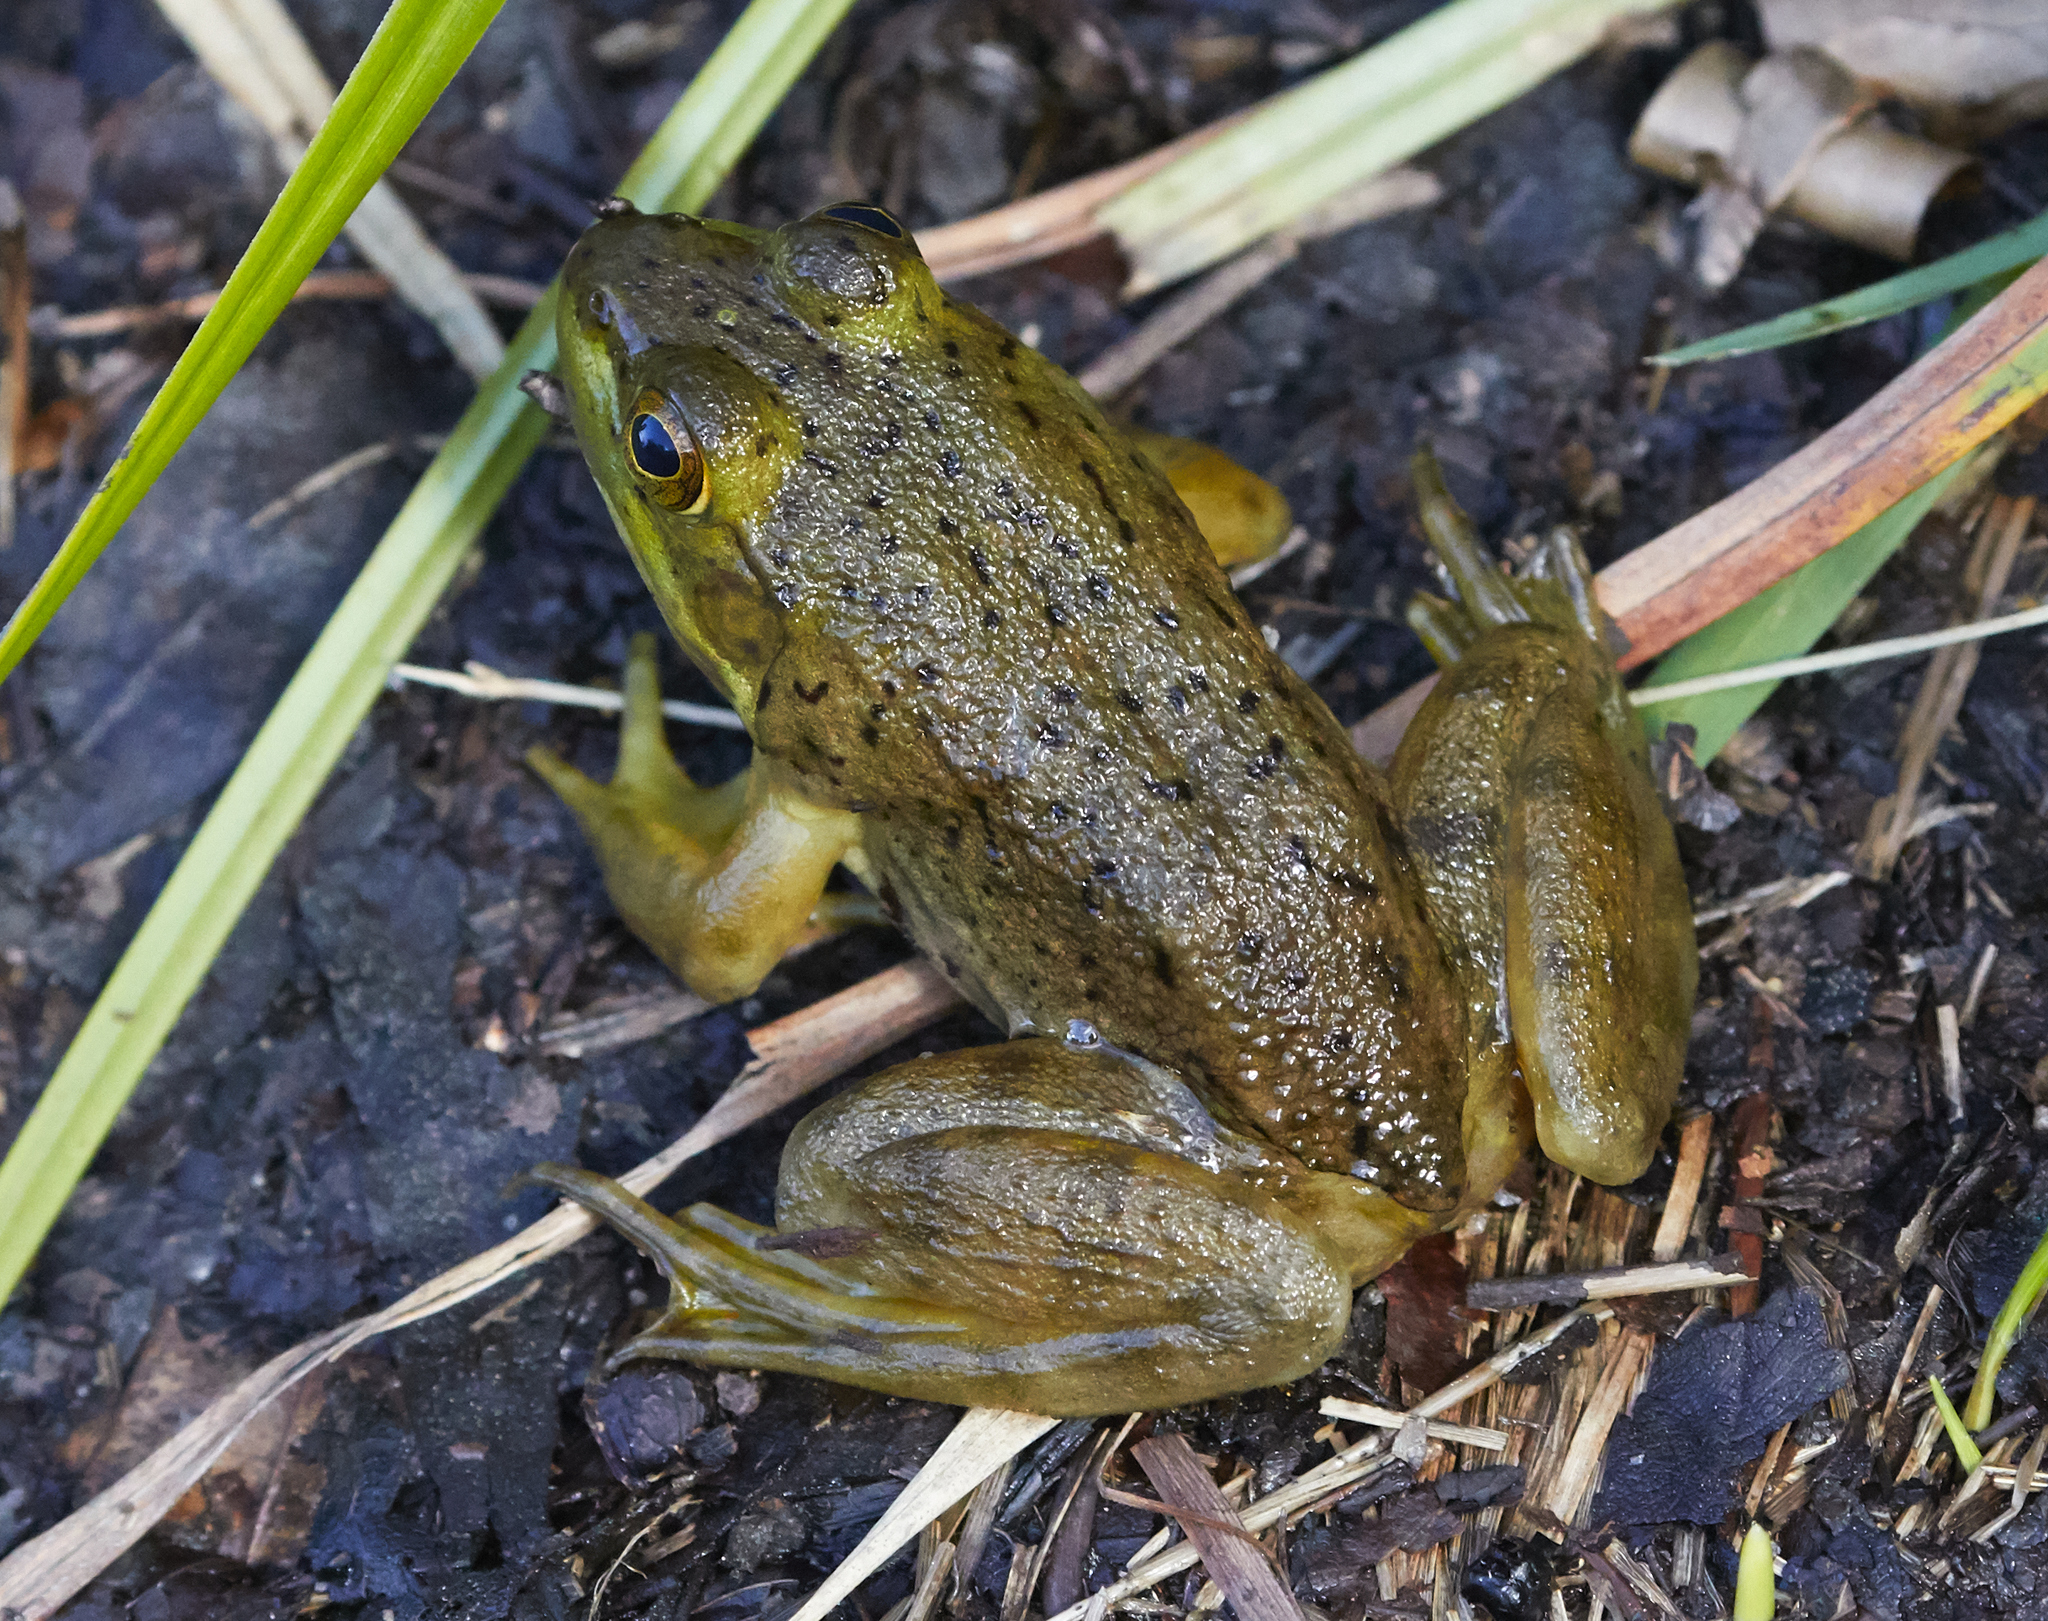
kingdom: Animalia
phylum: Chordata
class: Amphibia
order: Anura
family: Ranidae
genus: Lithobates
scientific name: Lithobates catesbeianus
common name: American bullfrog
